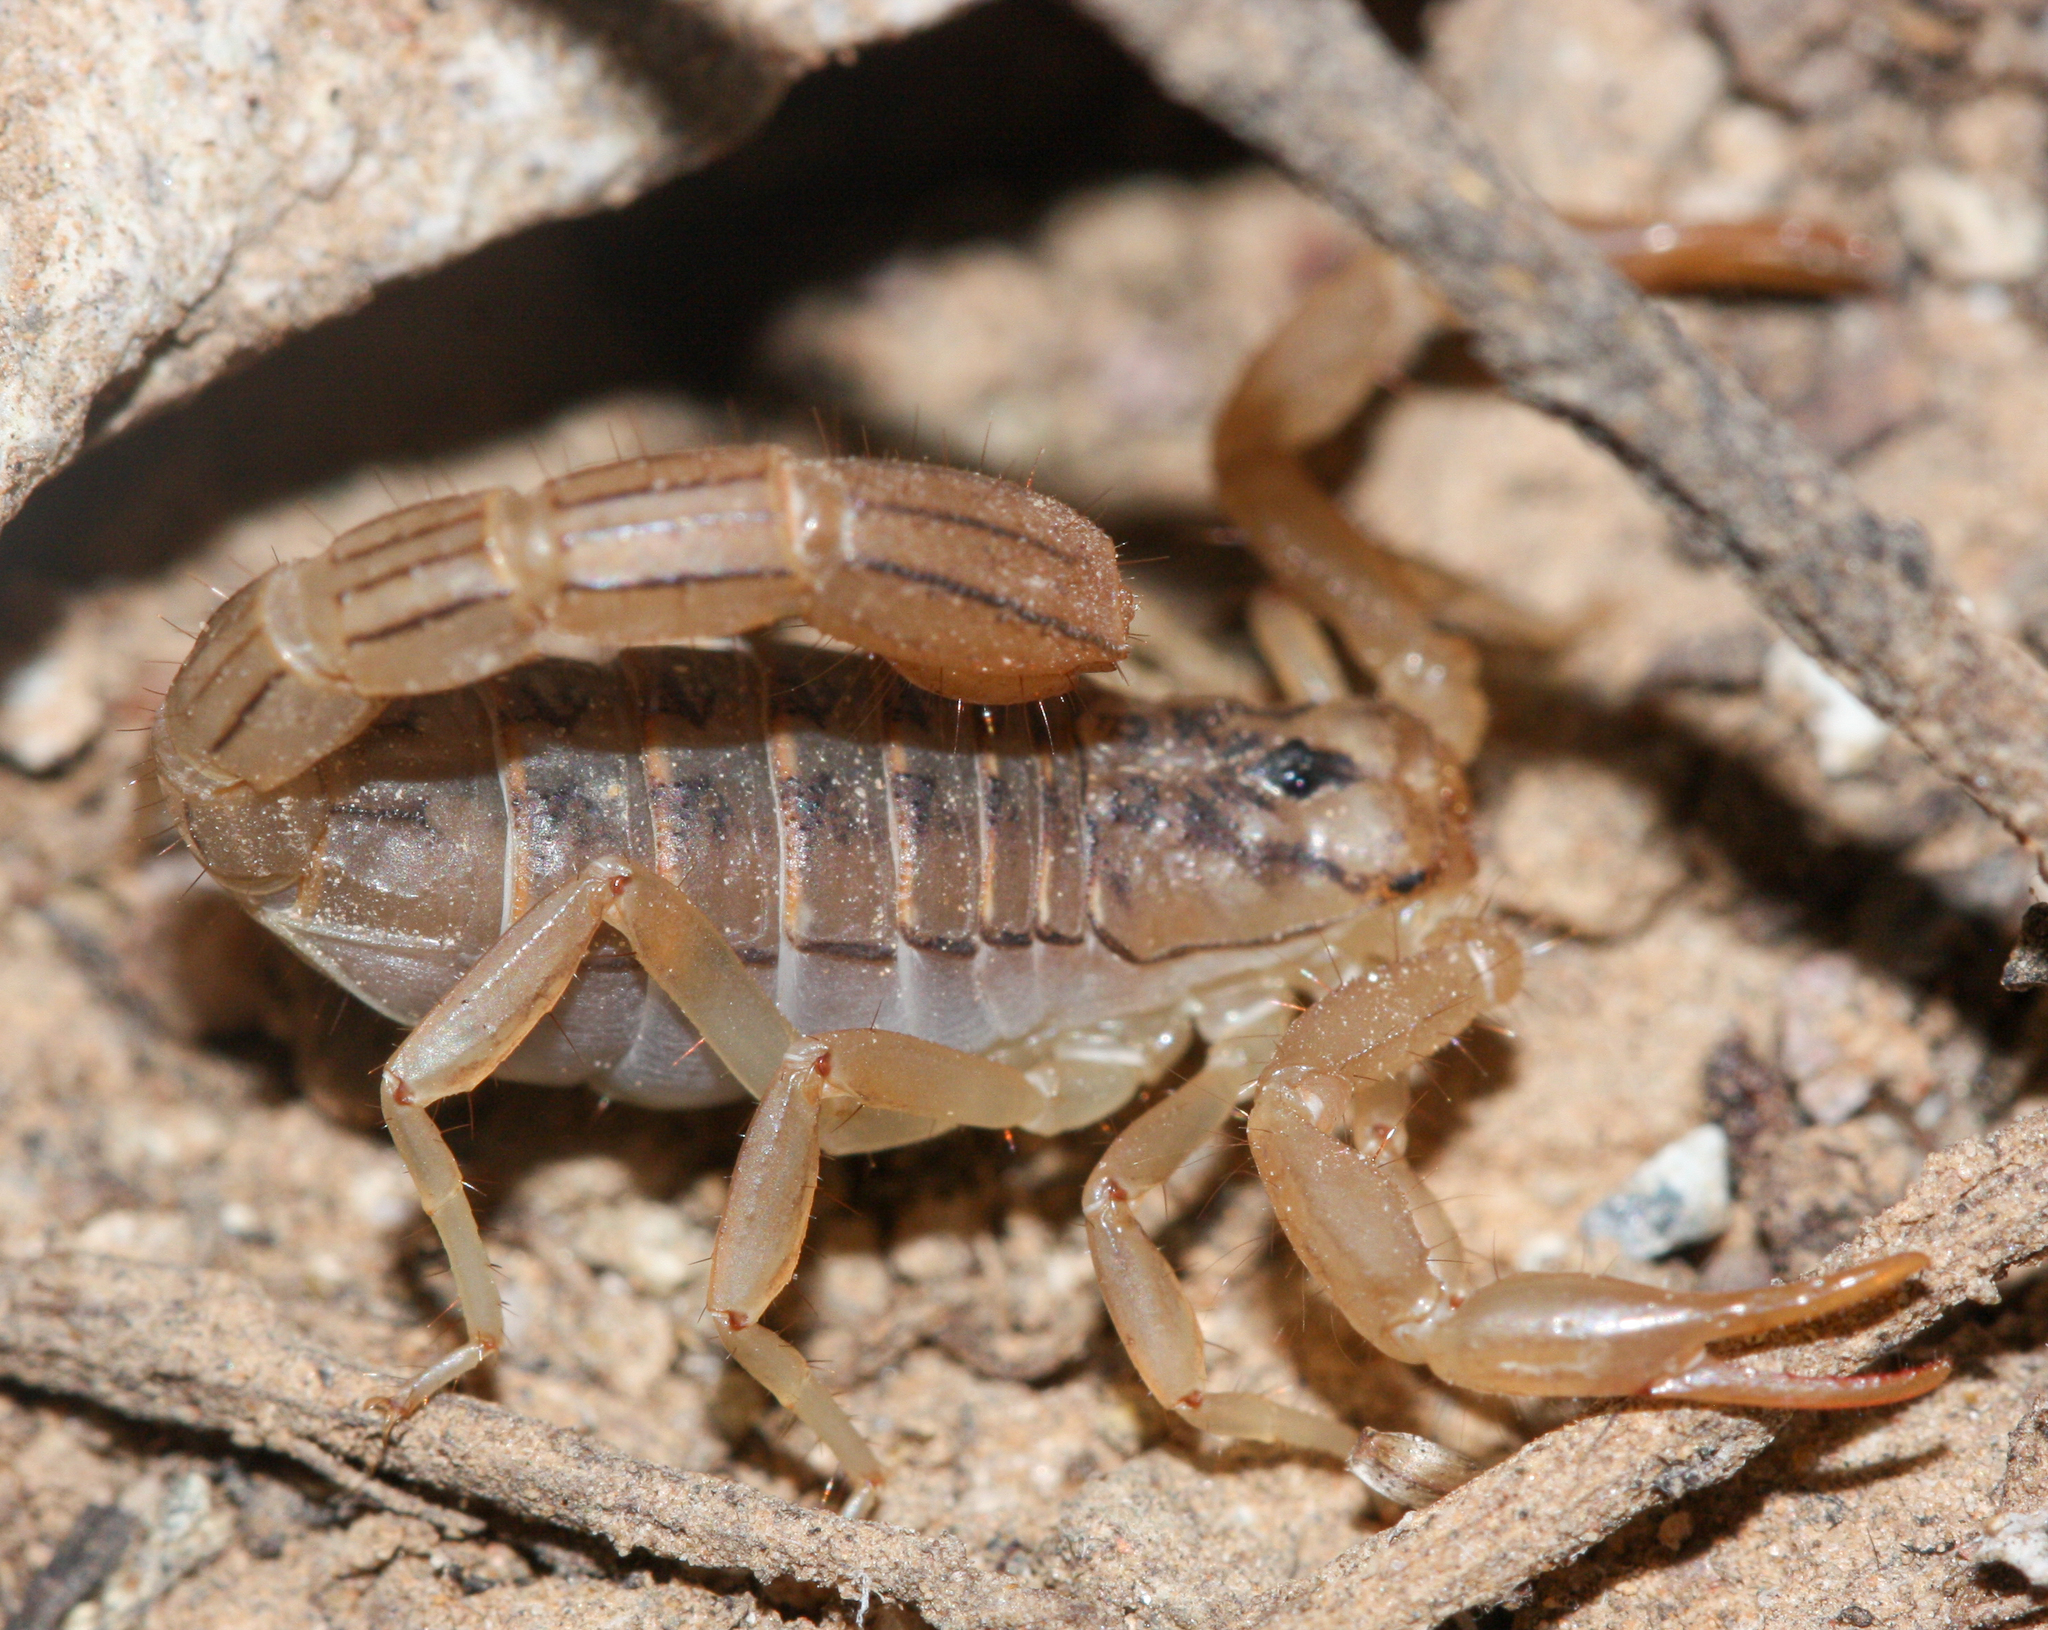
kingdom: Animalia
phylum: Arthropoda
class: Arachnida
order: Scorpiones
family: Vaejovidae
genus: Paravaejovis
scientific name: Paravaejovis spinigerus
